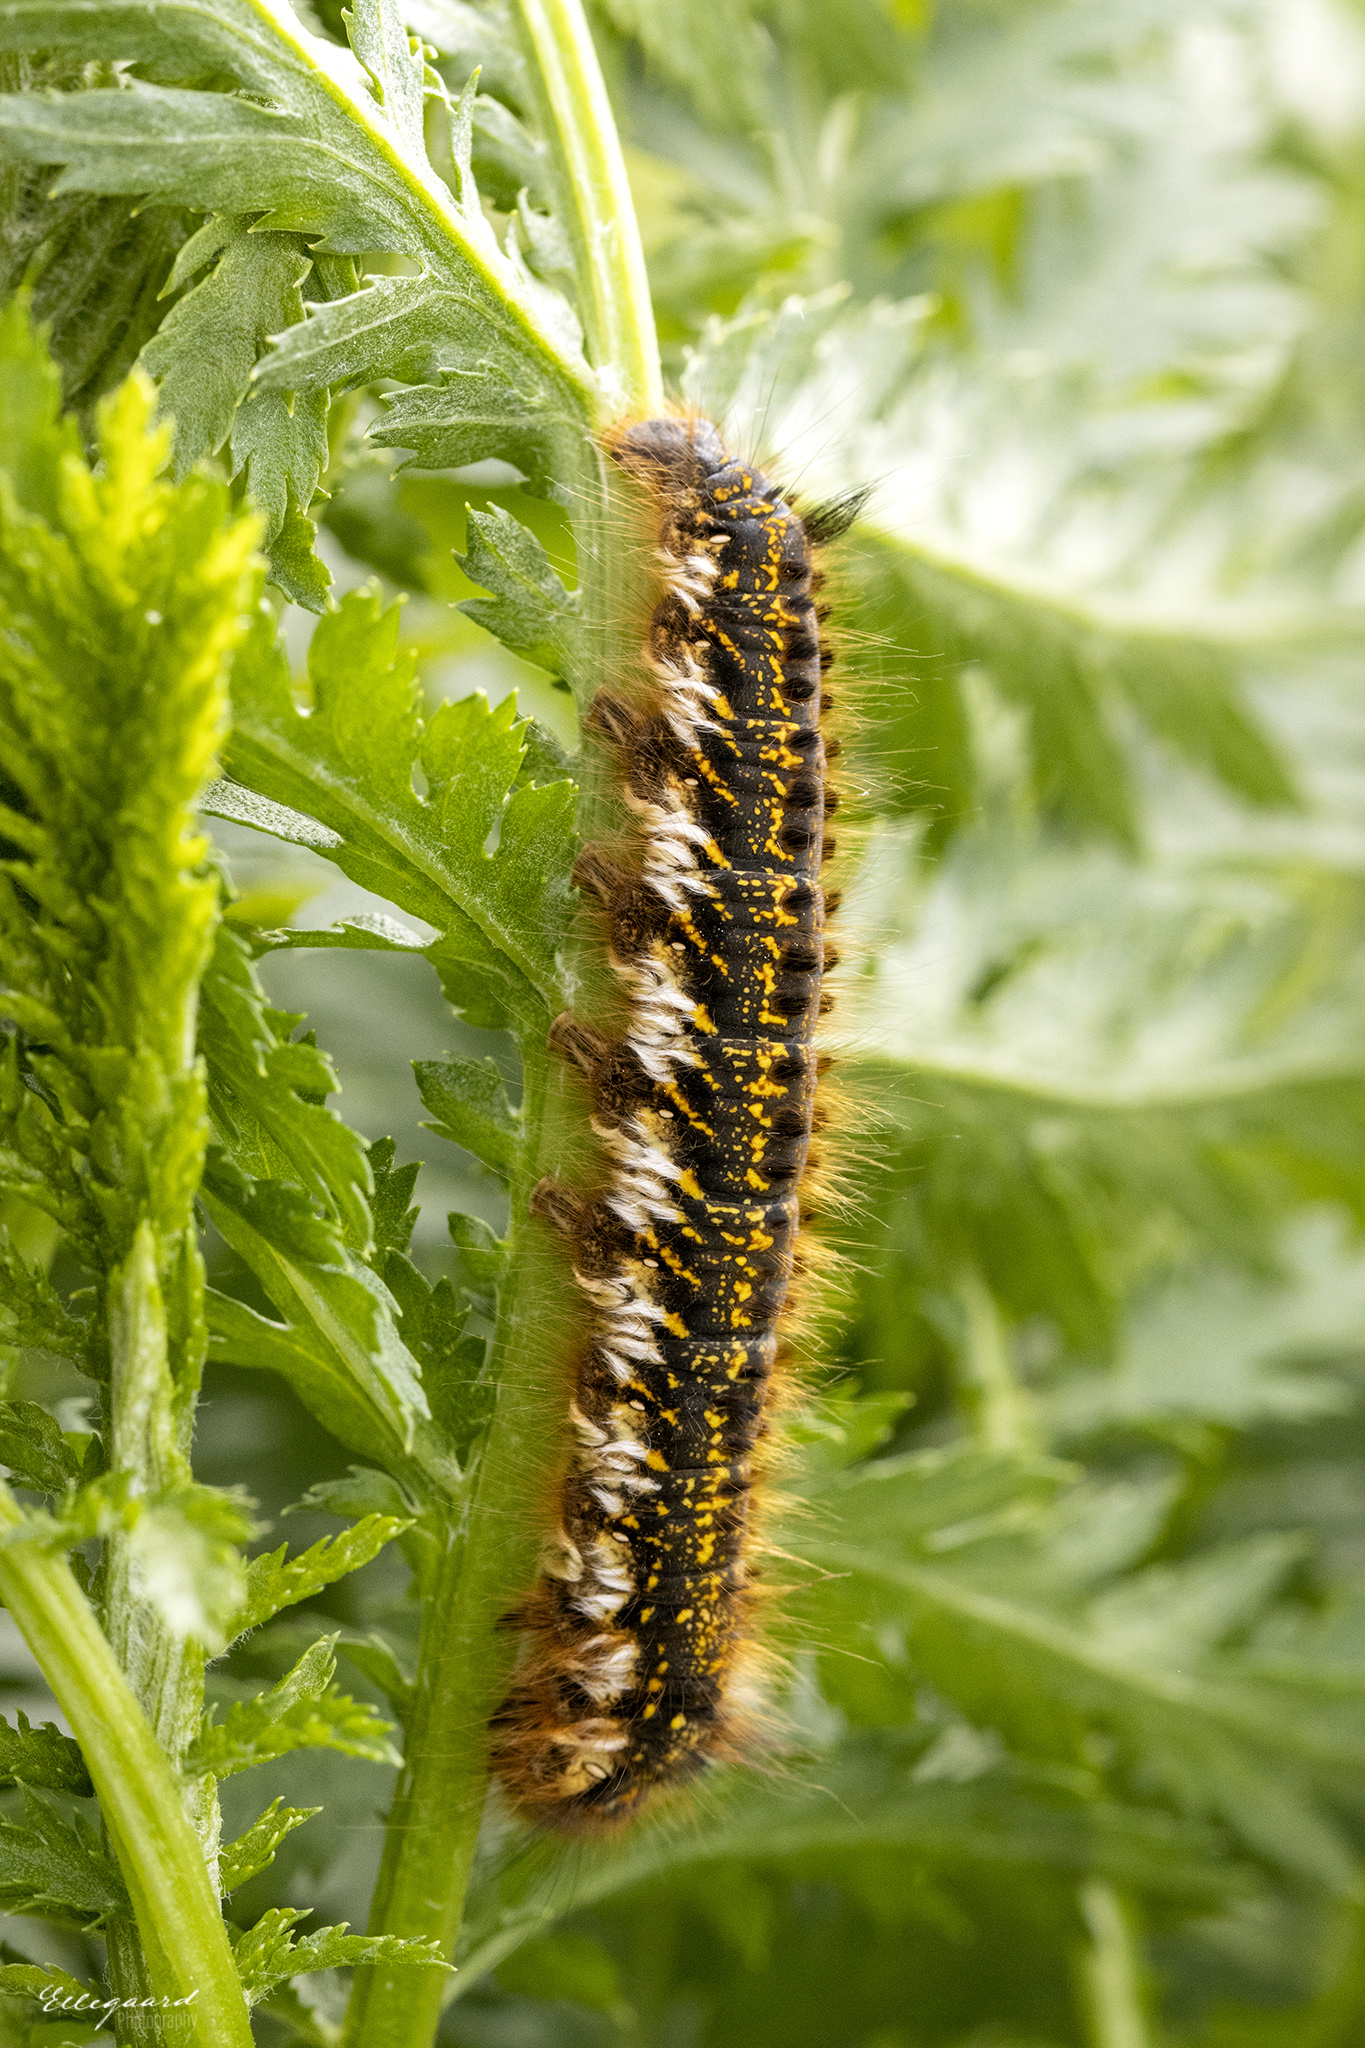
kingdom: Animalia
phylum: Arthropoda
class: Insecta
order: Lepidoptera
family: Lasiocampidae
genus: Euthrix
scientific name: Euthrix potatoria
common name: Drinker
